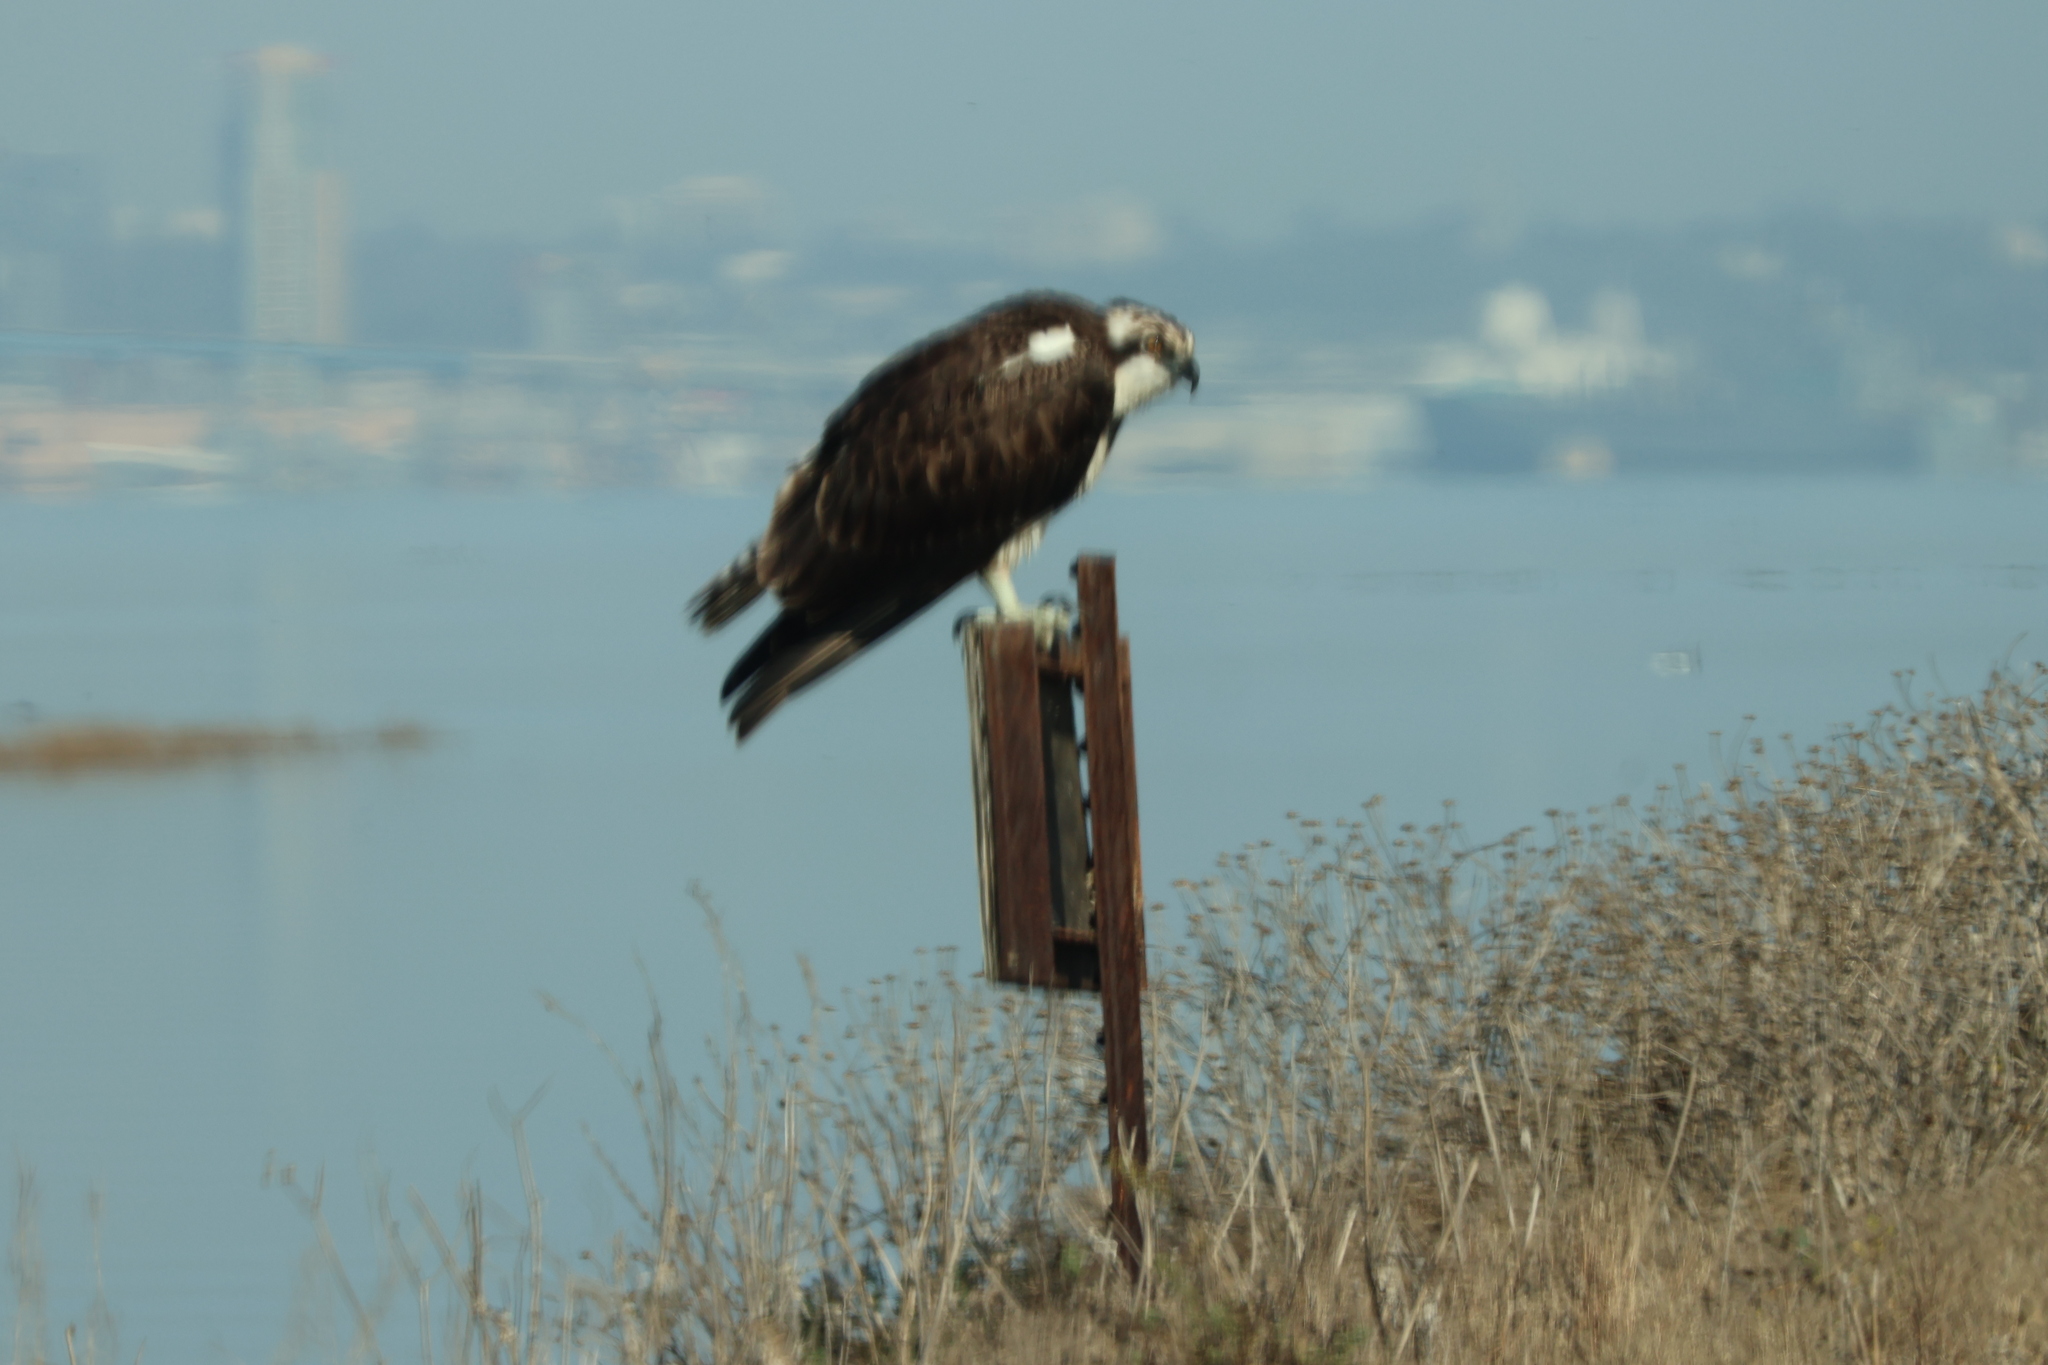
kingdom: Animalia
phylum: Chordata
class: Aves
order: Accipitriformes
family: Pandionidae
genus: Pandion
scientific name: Pandion haliaetus
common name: Osprey
